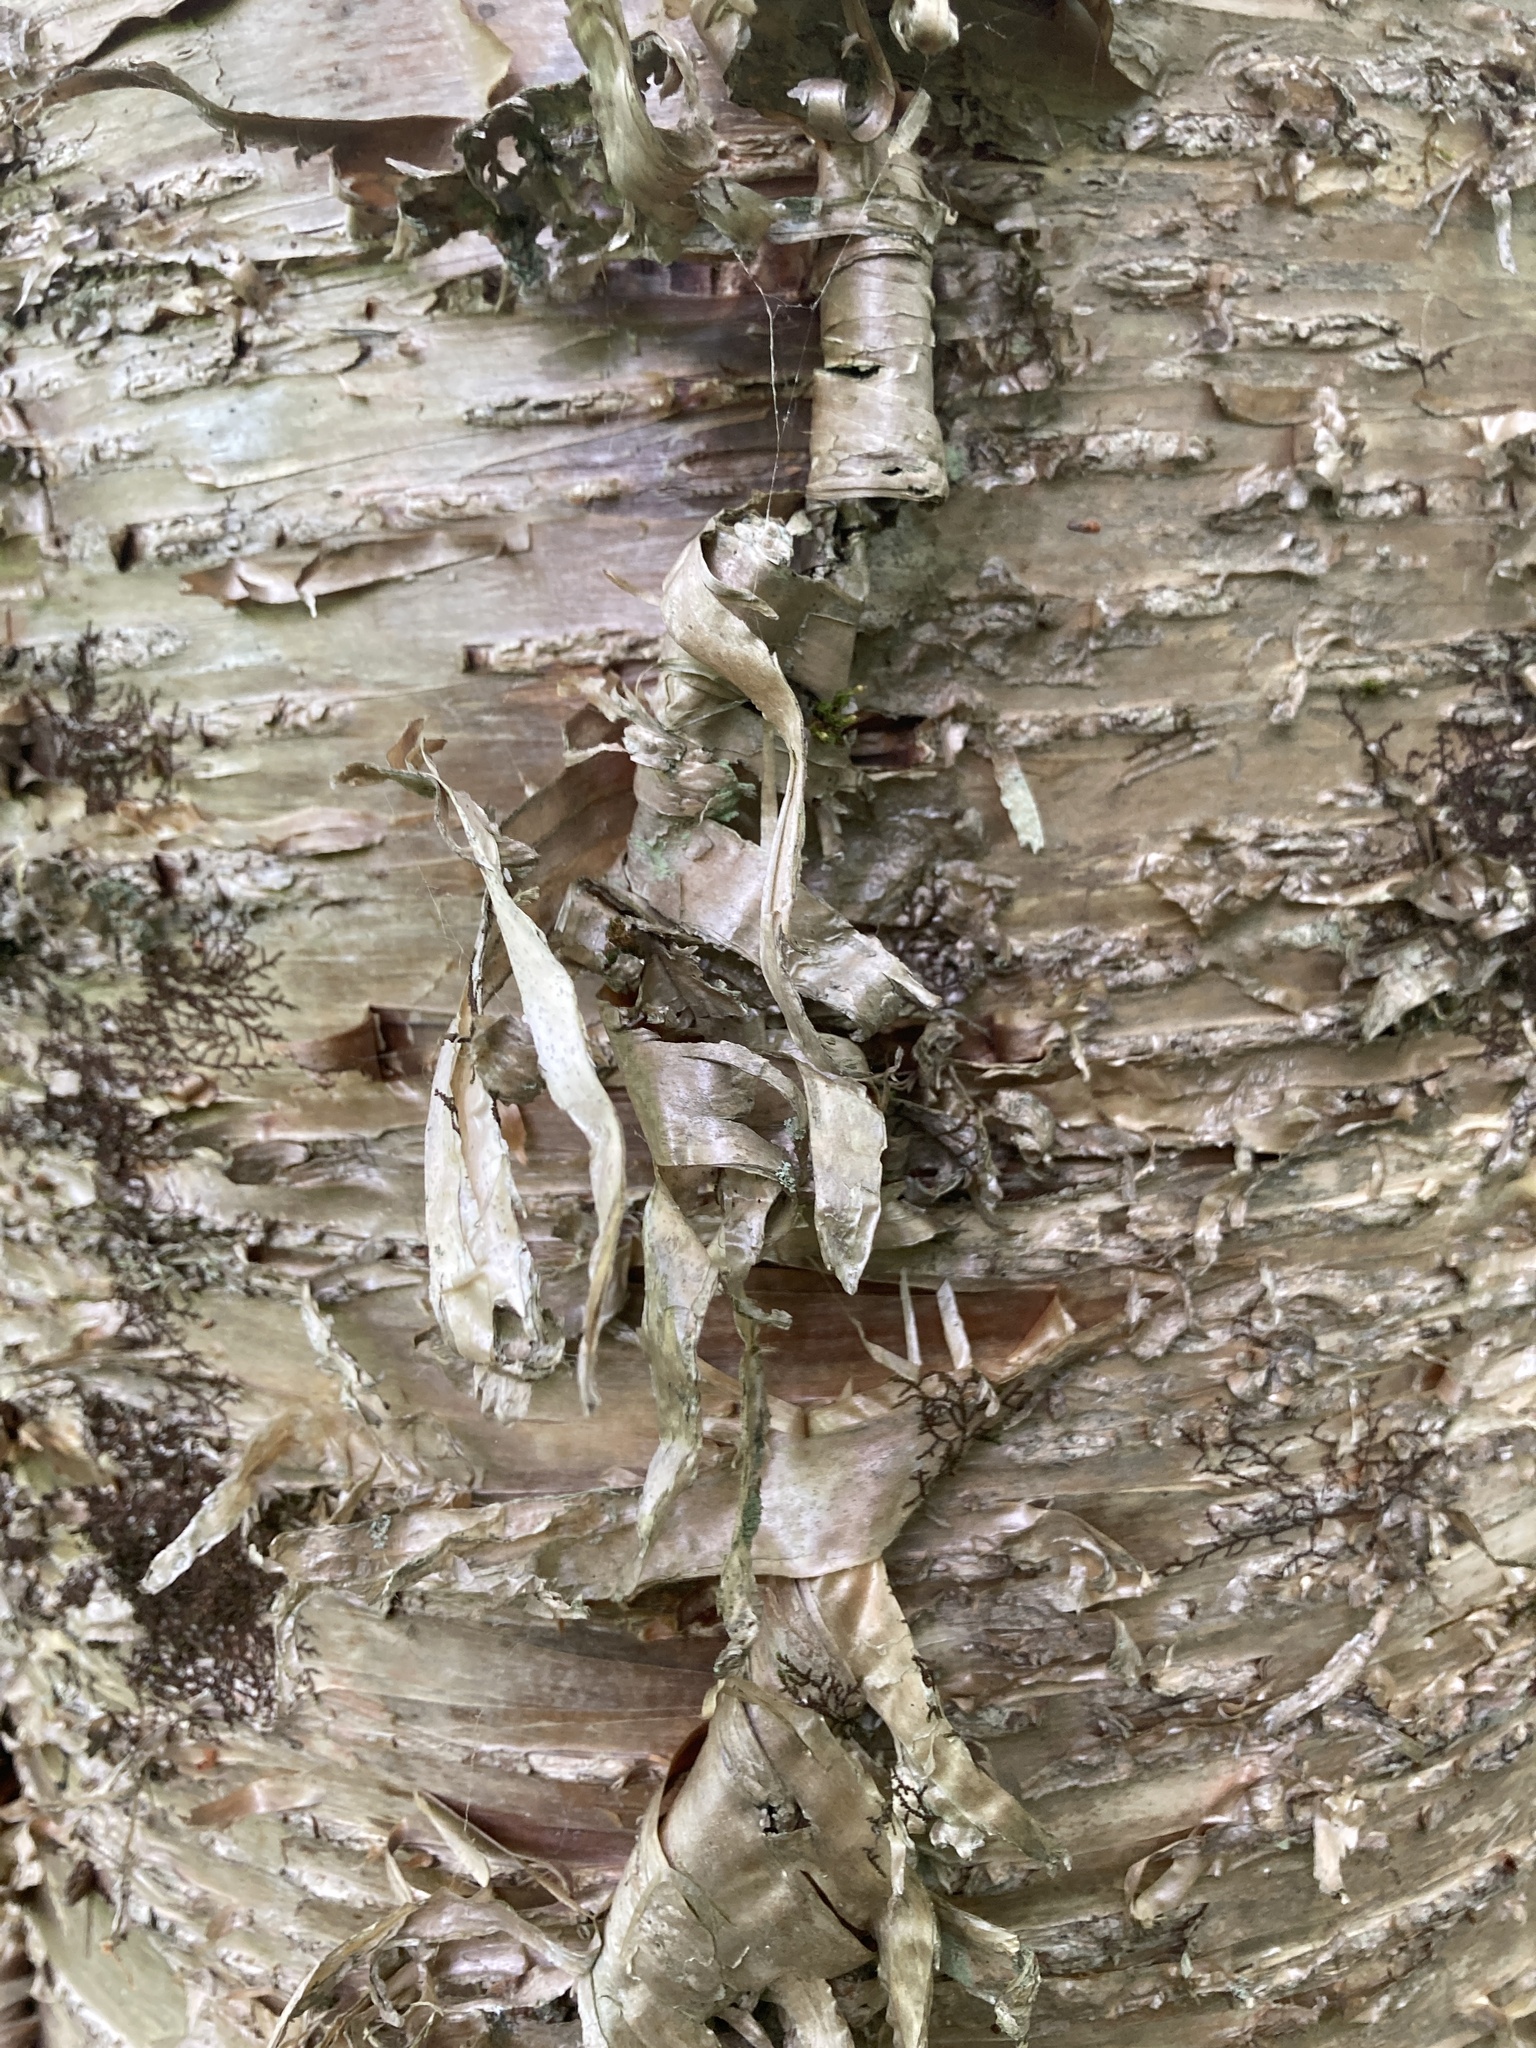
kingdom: Plantae
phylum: Tracheophyta
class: Magnoliopsida
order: Fagales
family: Betulaceae
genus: Betula
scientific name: Betula alleghaniensis
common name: Yellow birch
